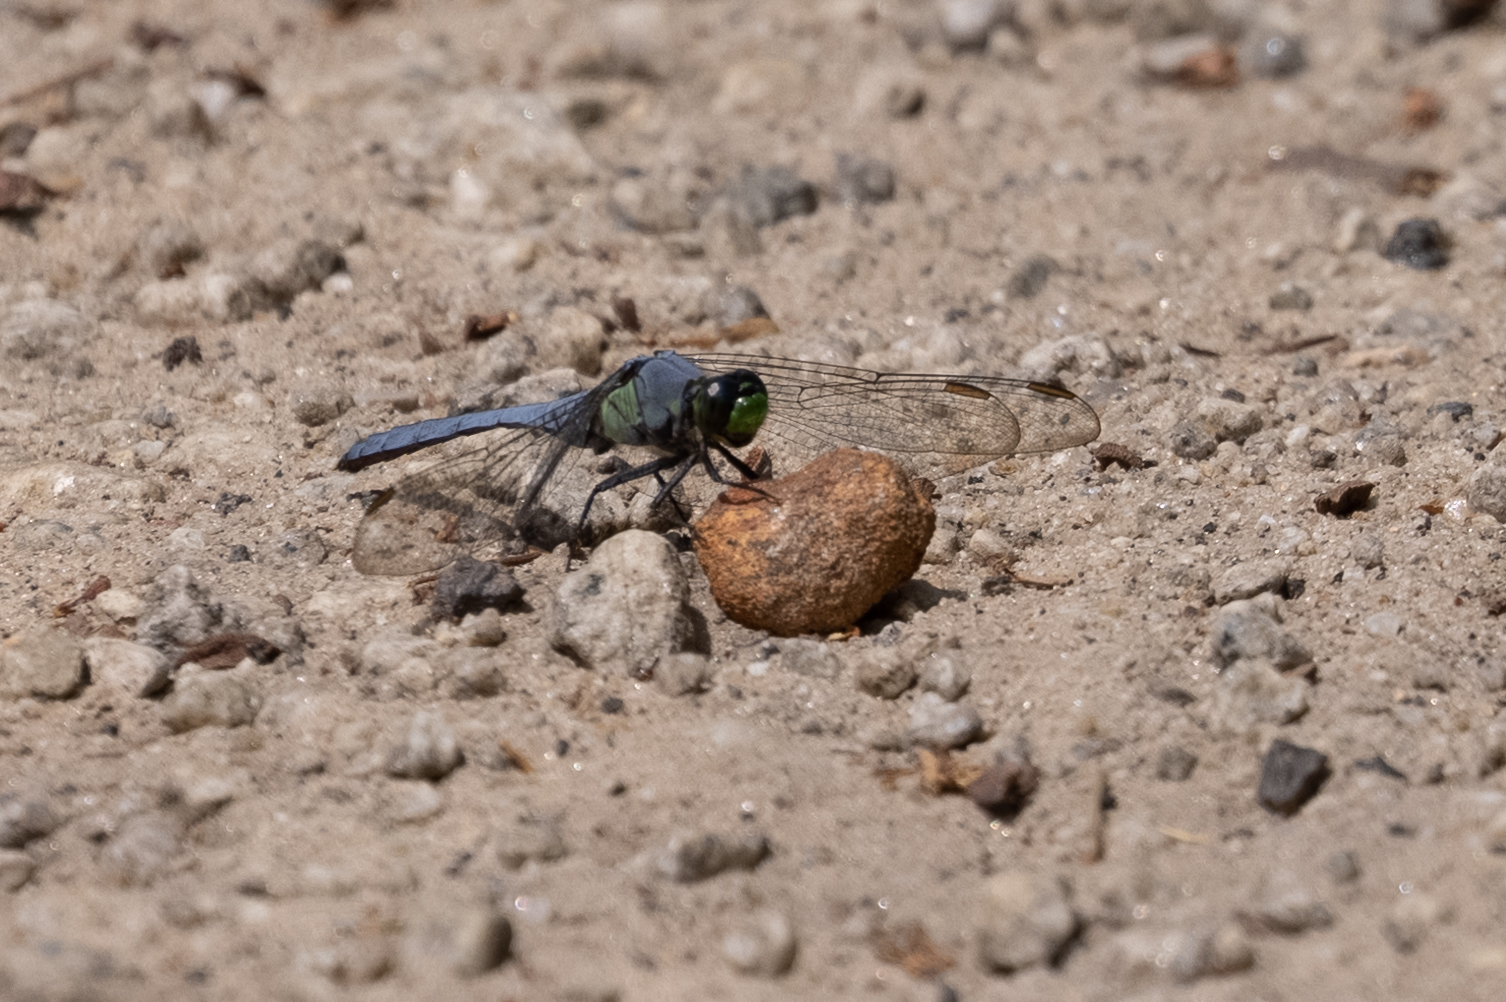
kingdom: Animalia
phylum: Arthropoda
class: Insecta
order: Odonata
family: Libellulidae
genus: Erythemis
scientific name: Erythemis simplicicollis
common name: Eastern pondhawk
